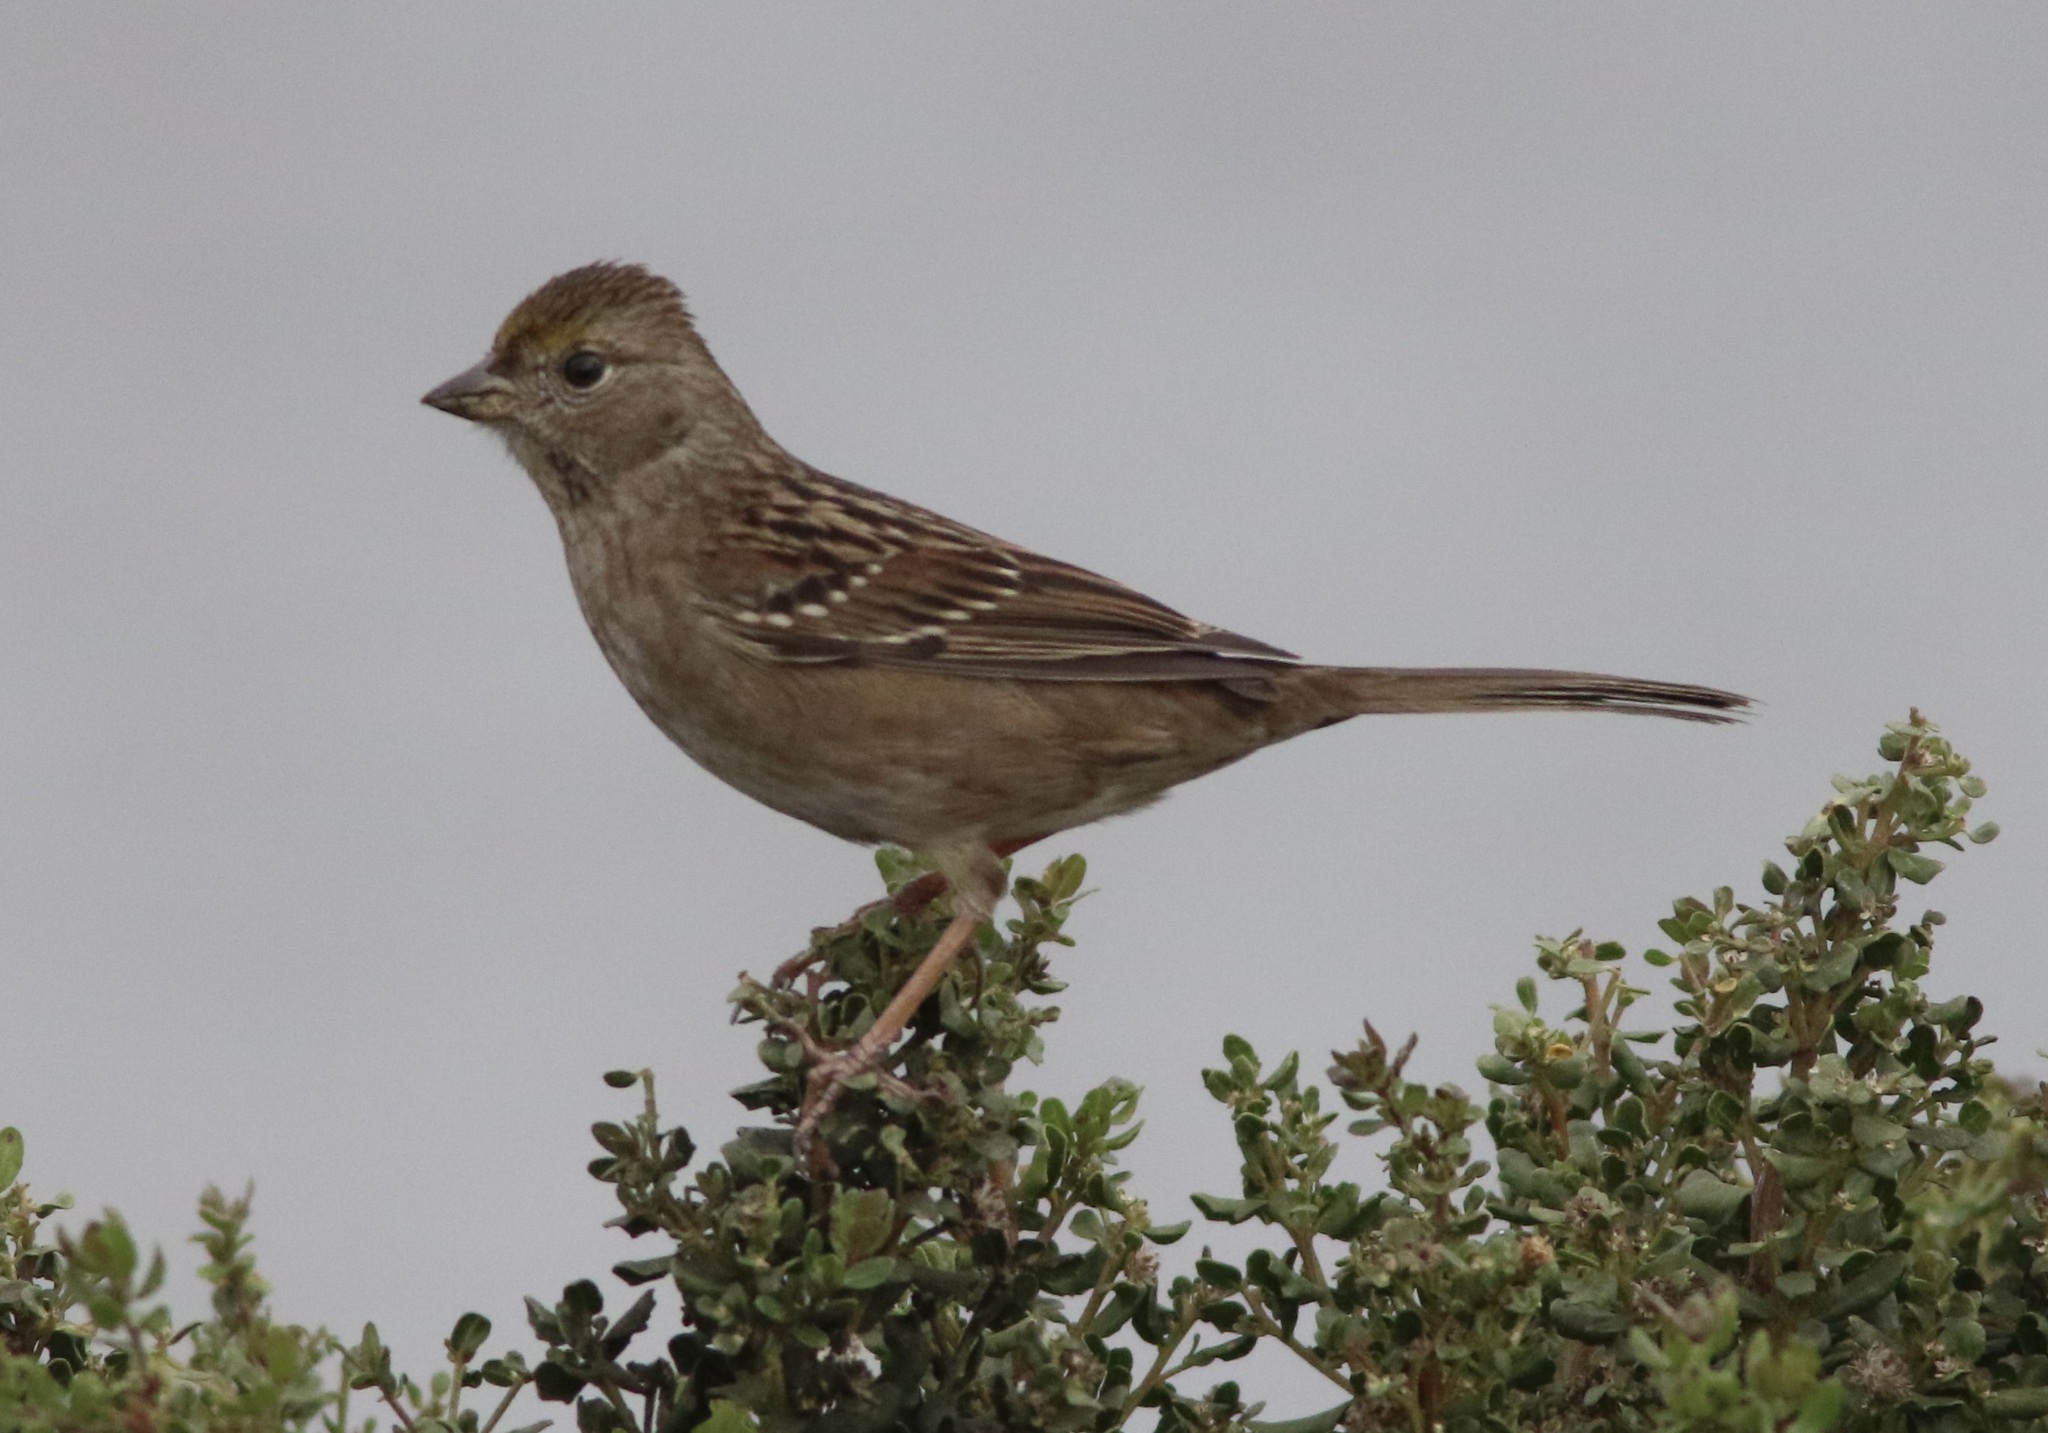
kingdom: Animalia
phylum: Chordata
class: Aves
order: Passeriformes
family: Passerellidae
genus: Zonotrichia
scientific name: Zonotrichia atricapilla
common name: Golden-crowned sparrow
